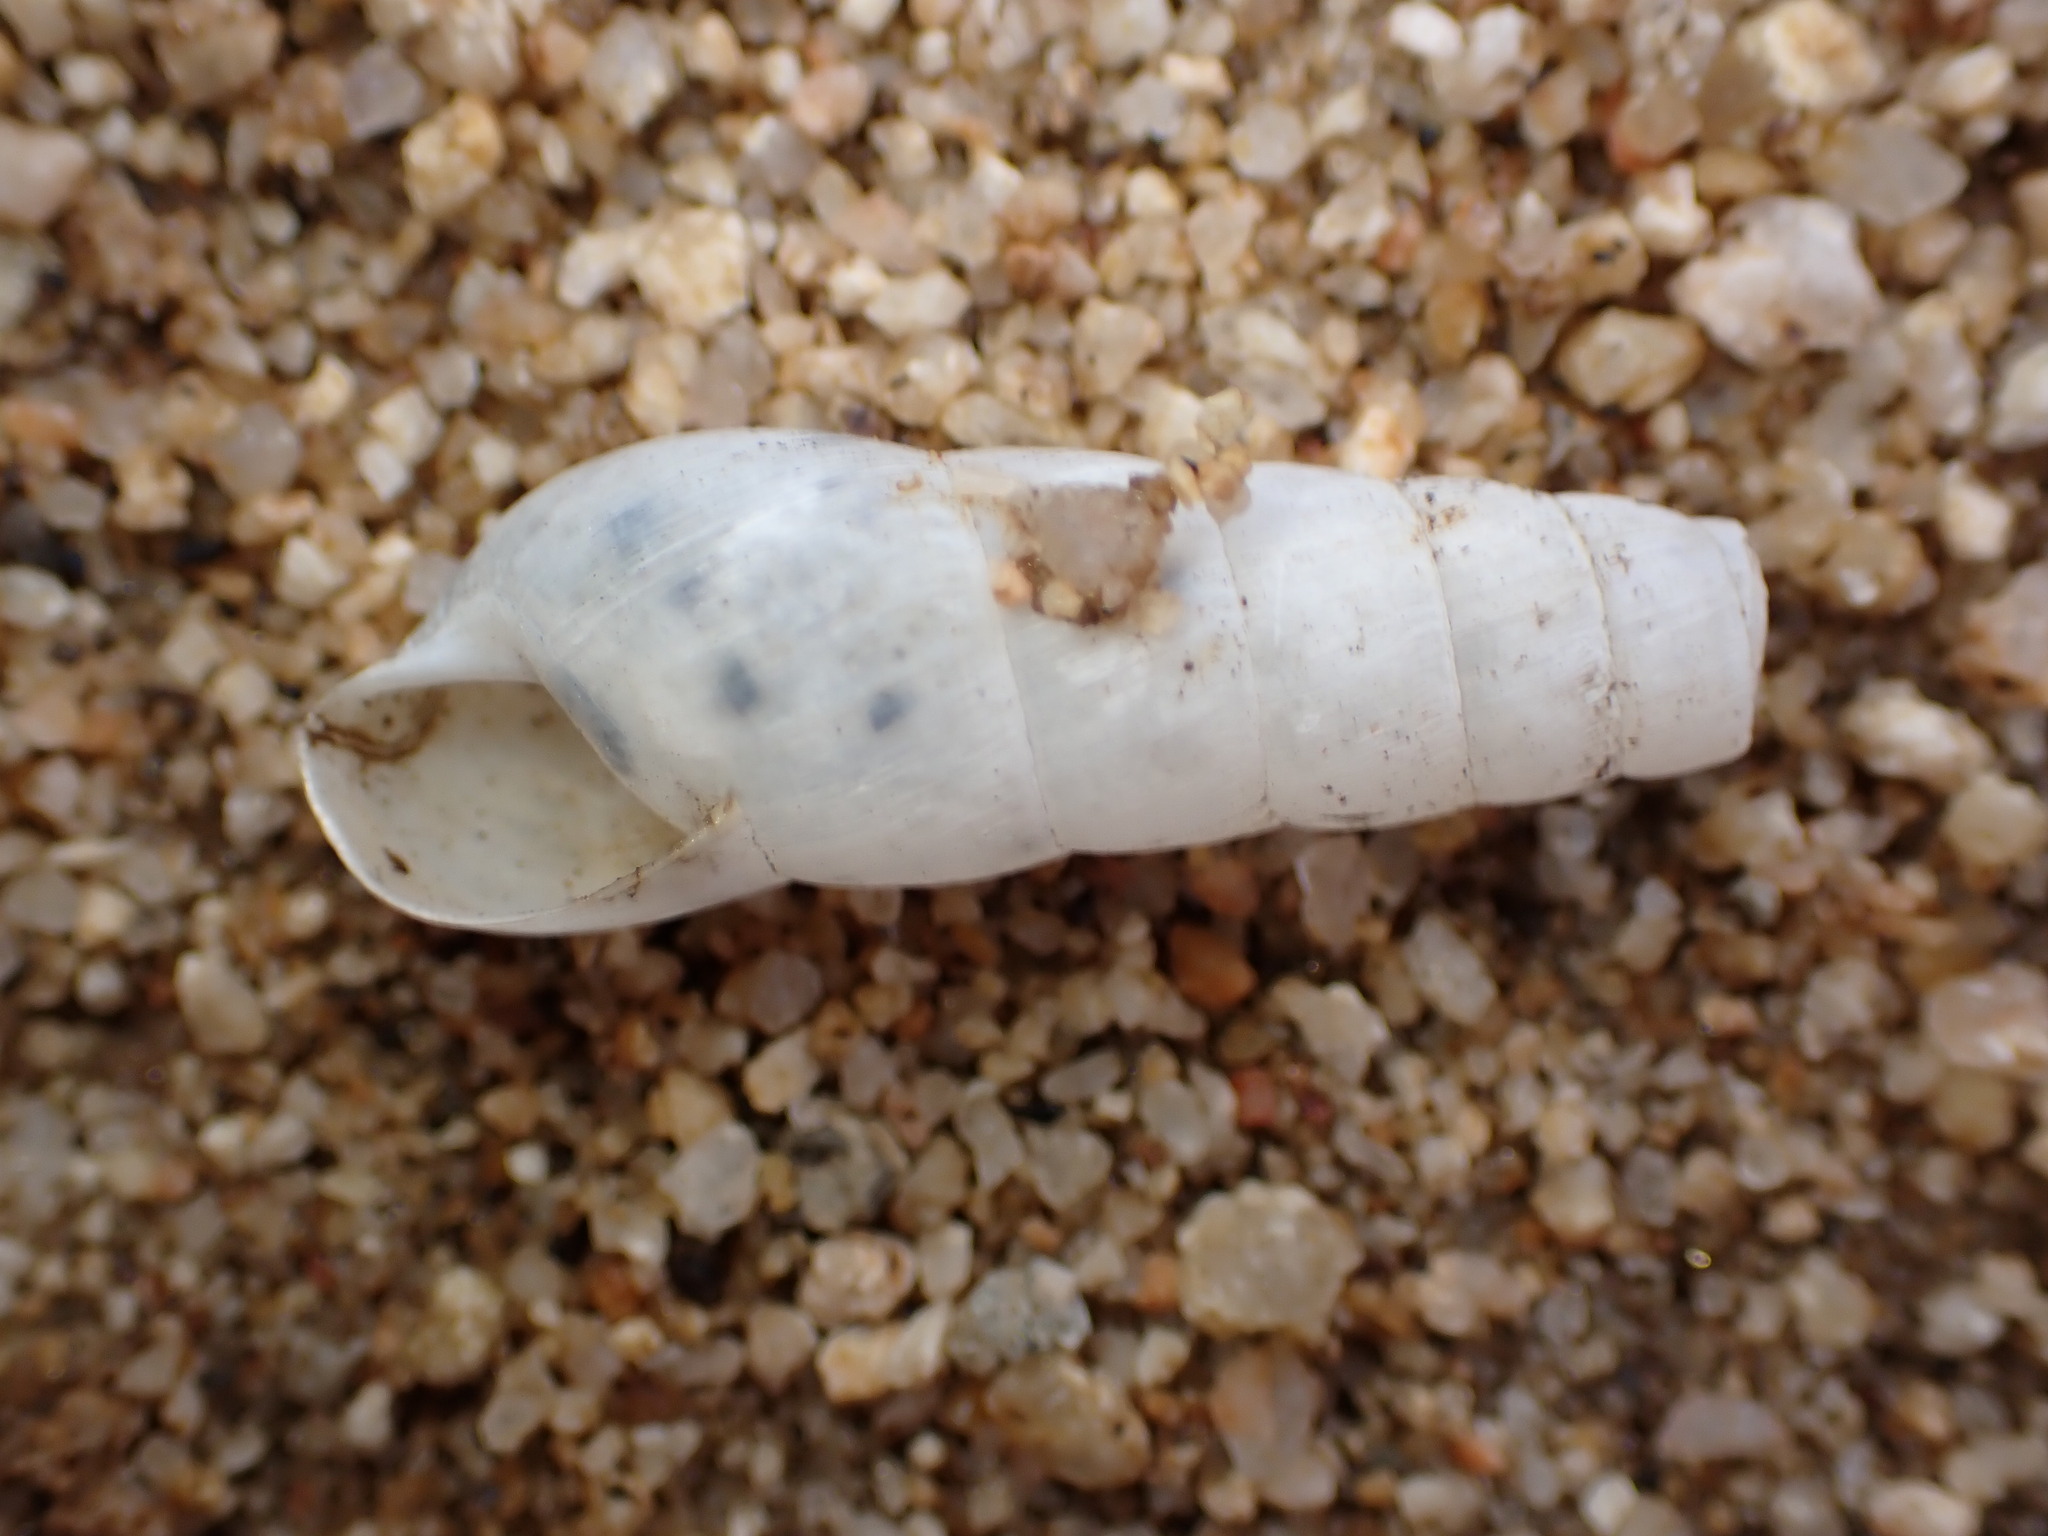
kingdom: Animalia
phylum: Mollusca
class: Gastropoda
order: Stylommatophora
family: Achatinidae
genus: Rumina
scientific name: Rumina decollata
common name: Decollate snail
